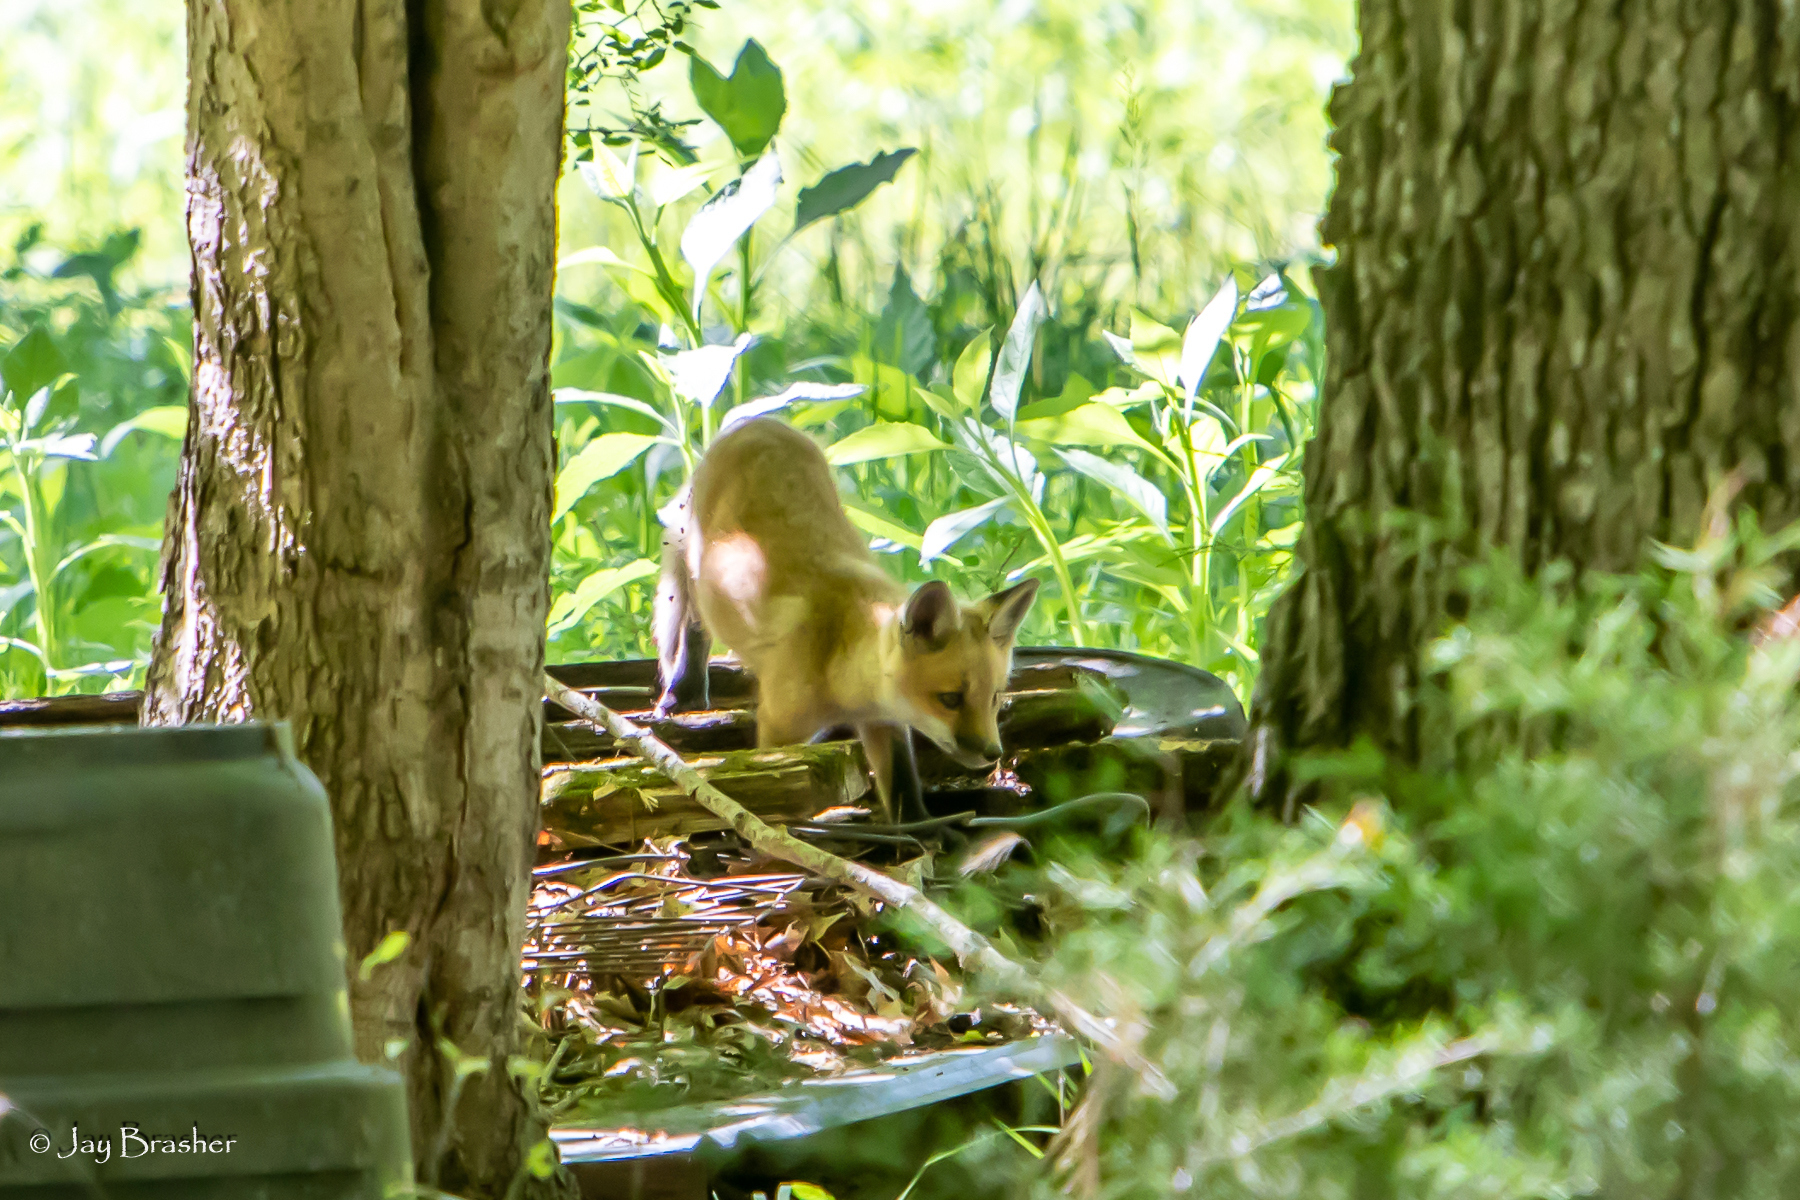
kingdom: Animalia
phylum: Chordata
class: Mammalia
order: Carnivora
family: Canidae
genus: Vulpes
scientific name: Vulpes vulpes
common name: Red fox
